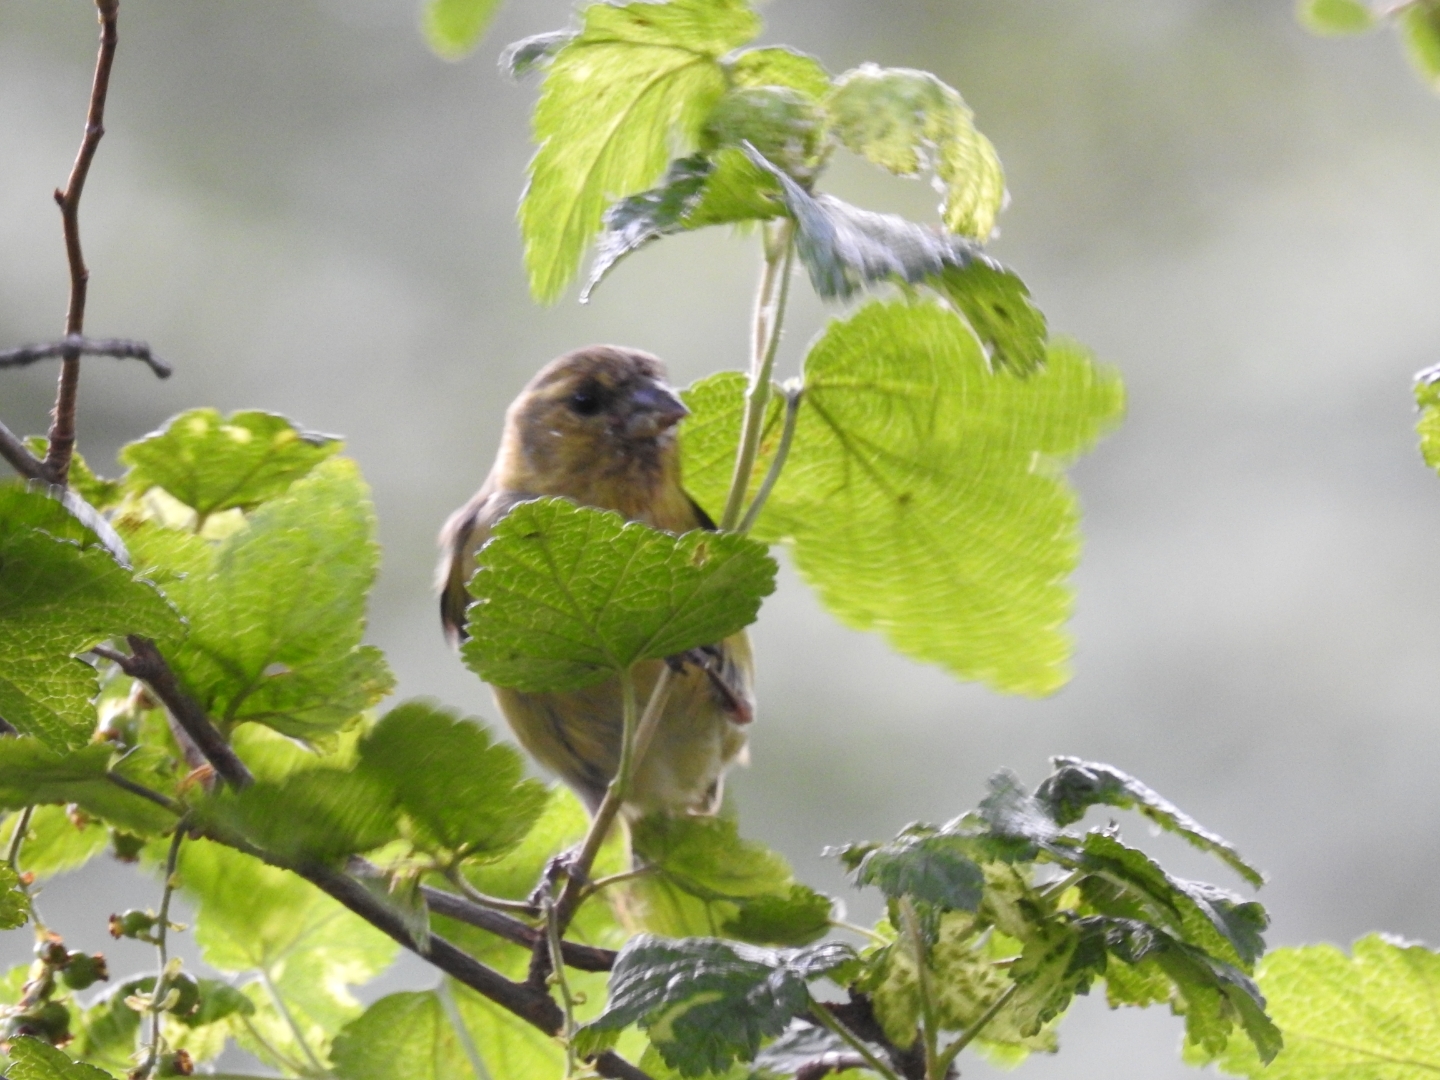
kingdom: Animalia
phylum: Chordata
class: Aves
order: Passeriformes
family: Fringillidae
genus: Spinus
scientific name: Spinus barbatus
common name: Black-chinned siskin
